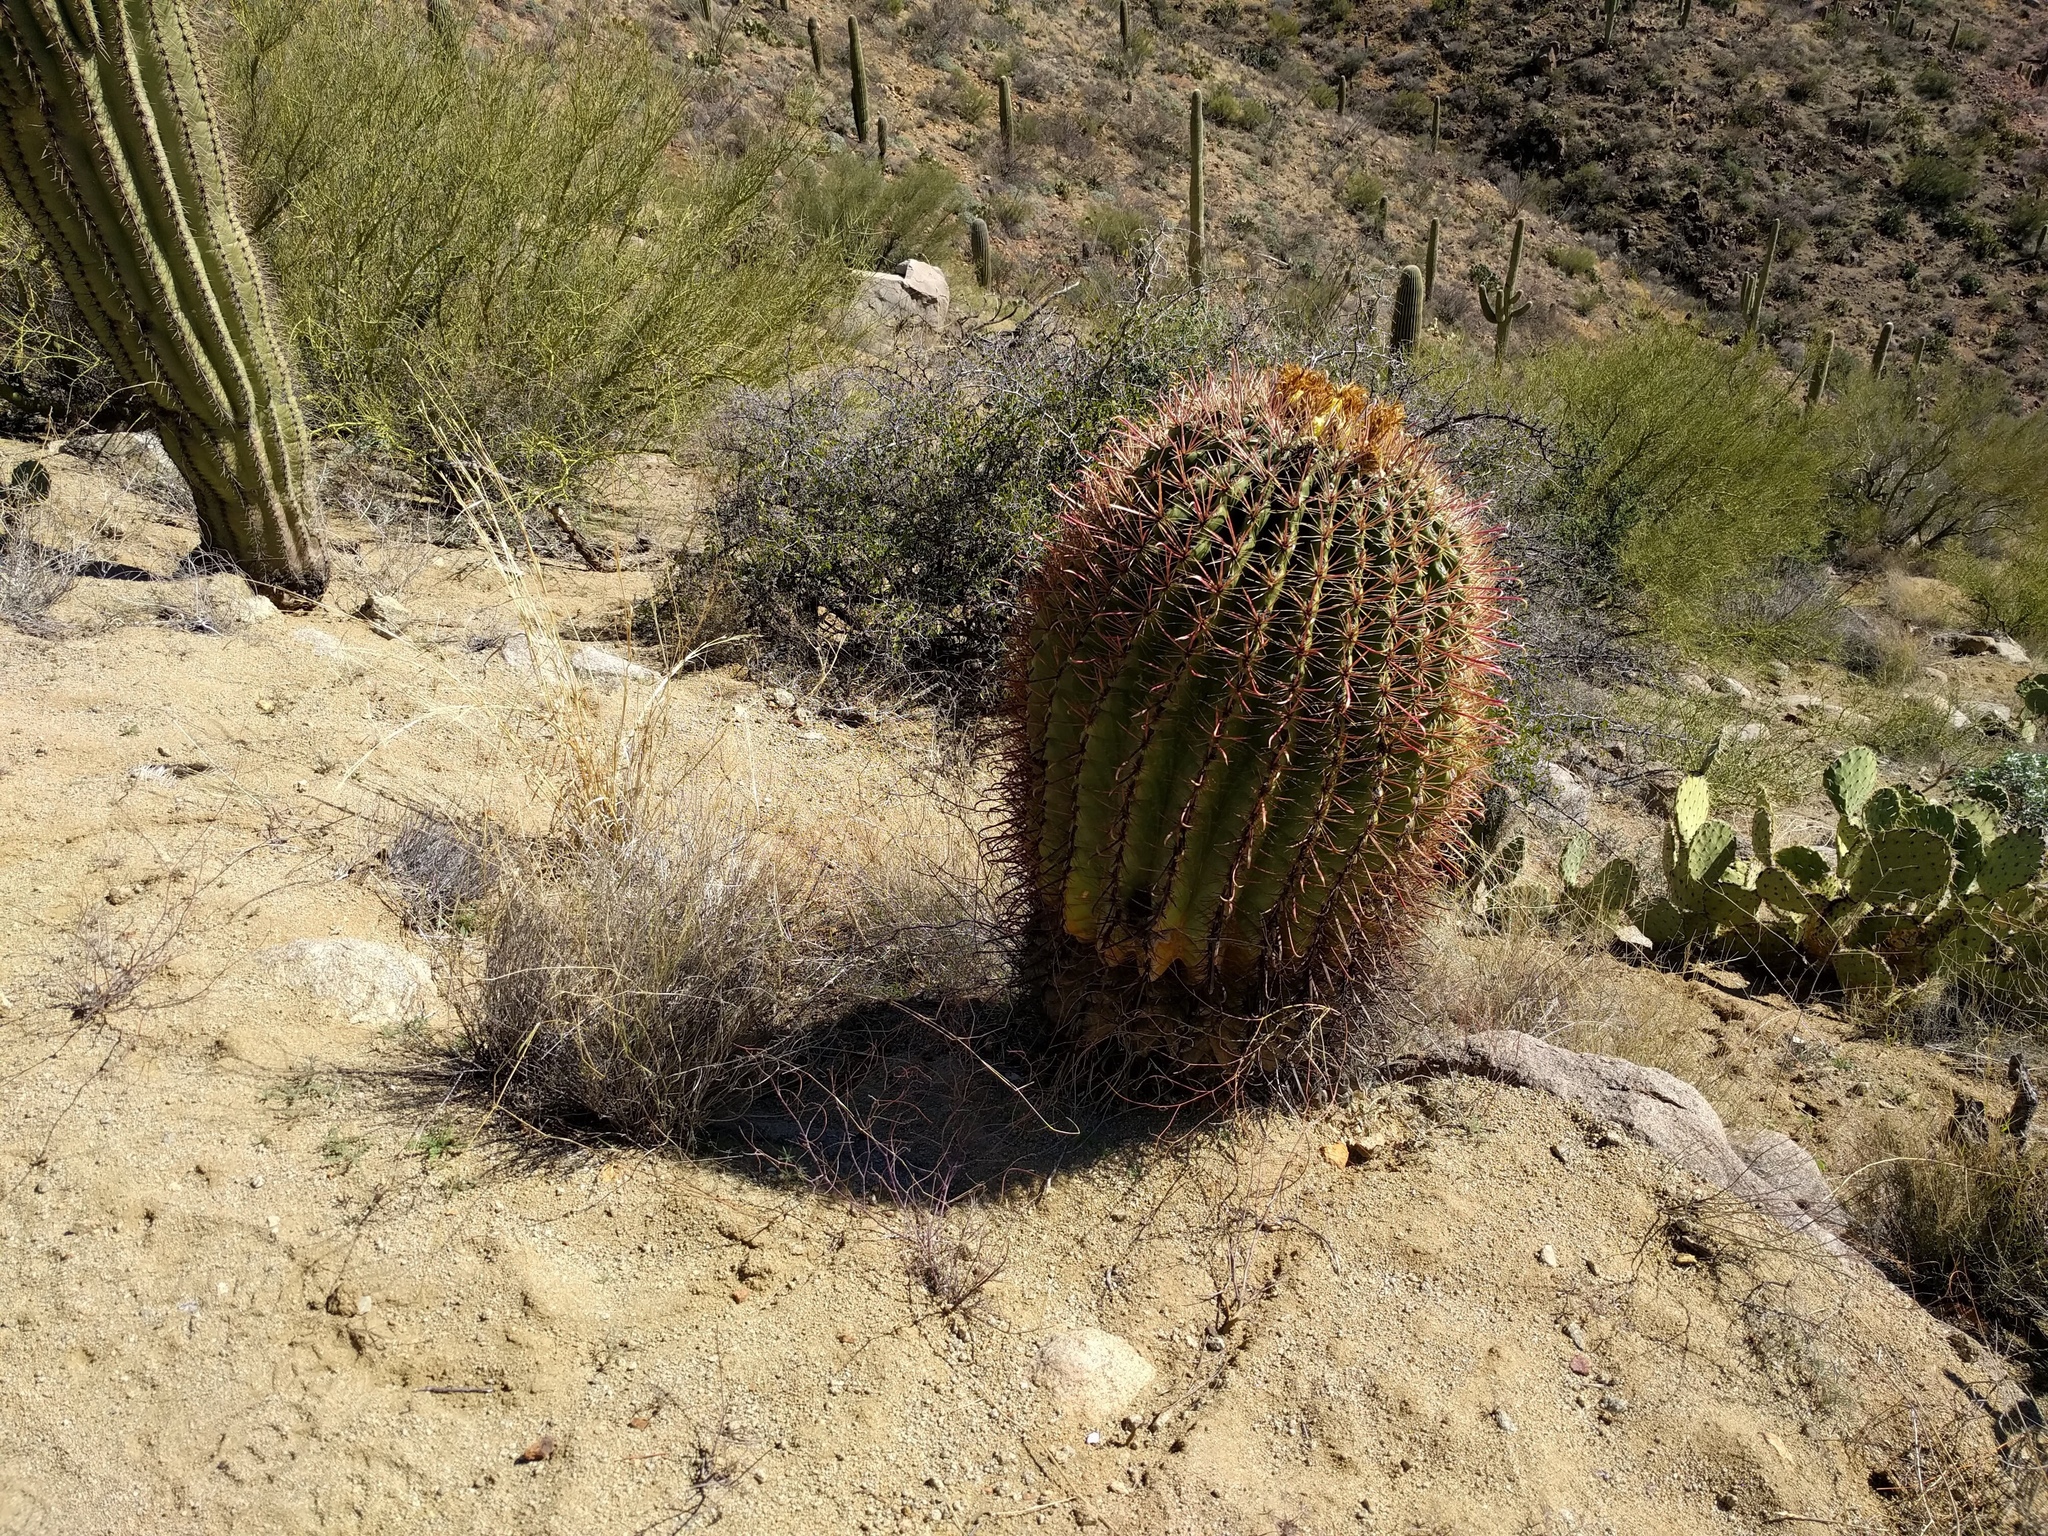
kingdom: Plantae
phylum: Tracheophyta
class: Magnoliopsida
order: Caryophyllales
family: Cactaceae
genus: Ferocactus
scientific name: Ferocactus cylindraceus
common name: California barrel cactus
